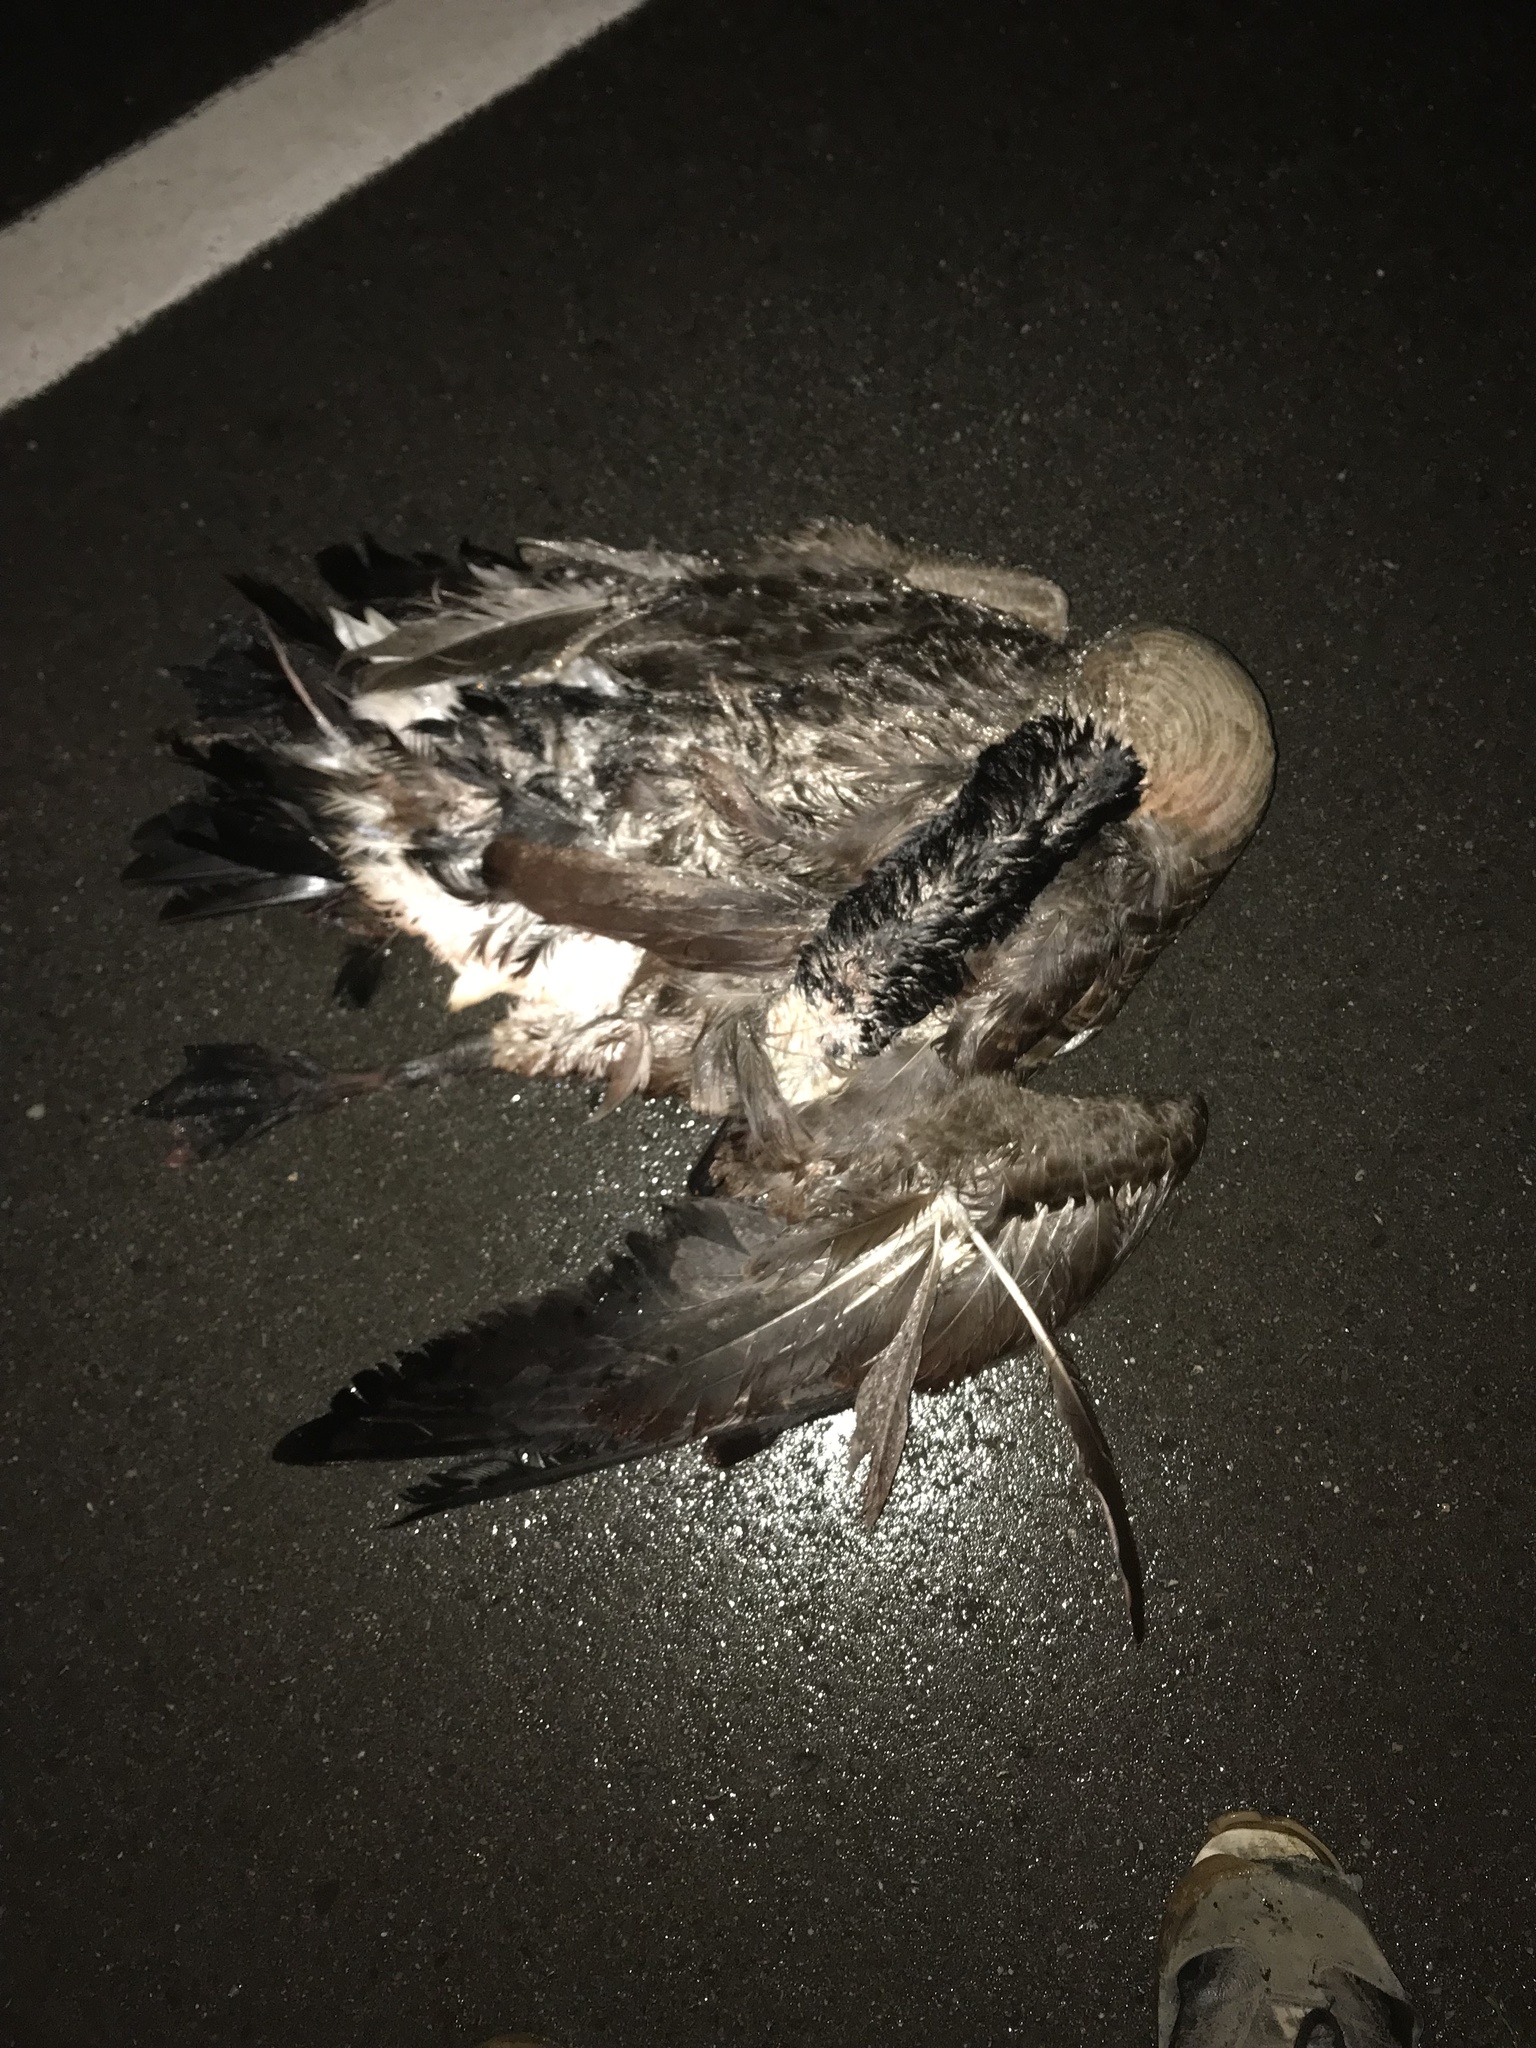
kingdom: Animalia
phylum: Chordata
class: Aves
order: Anseriformes
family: Anatidae
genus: Branta
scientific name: Branta canadensis
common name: Canada goose
